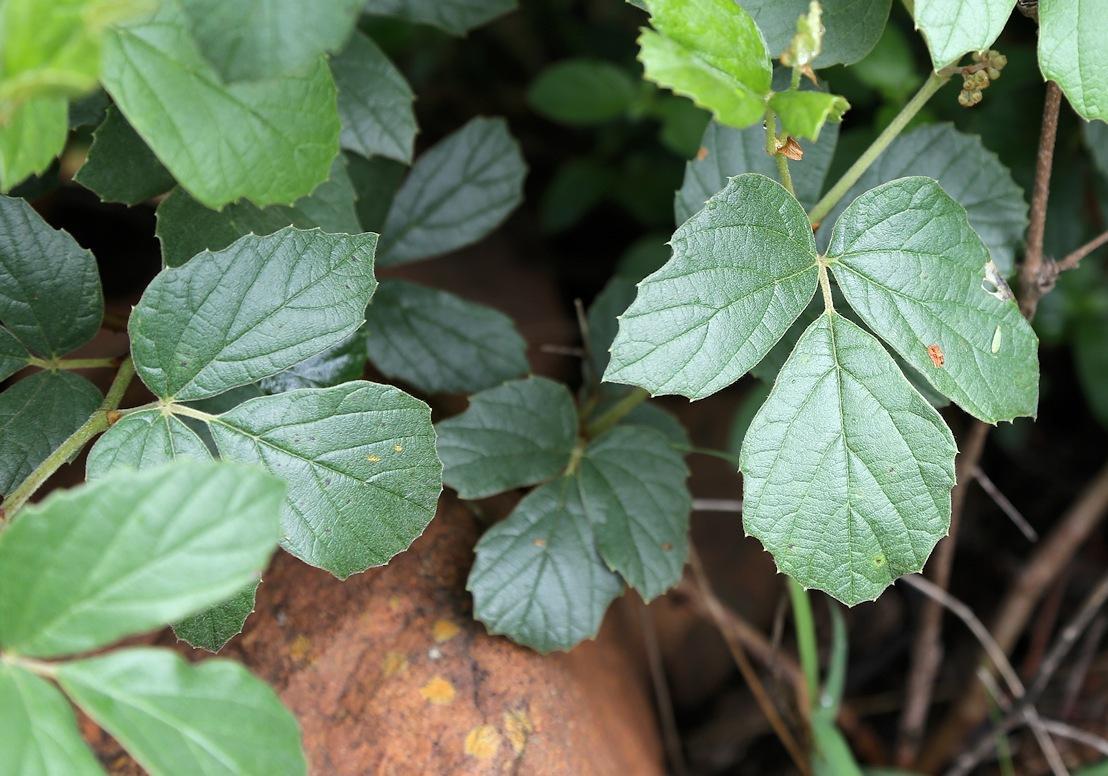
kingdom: Plantae
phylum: Tracheophyta
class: Magnoliopsida
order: Vitales
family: Vitaceae
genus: Rhoicissus
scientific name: Rhoicissus tridentata
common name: Common forest grape
